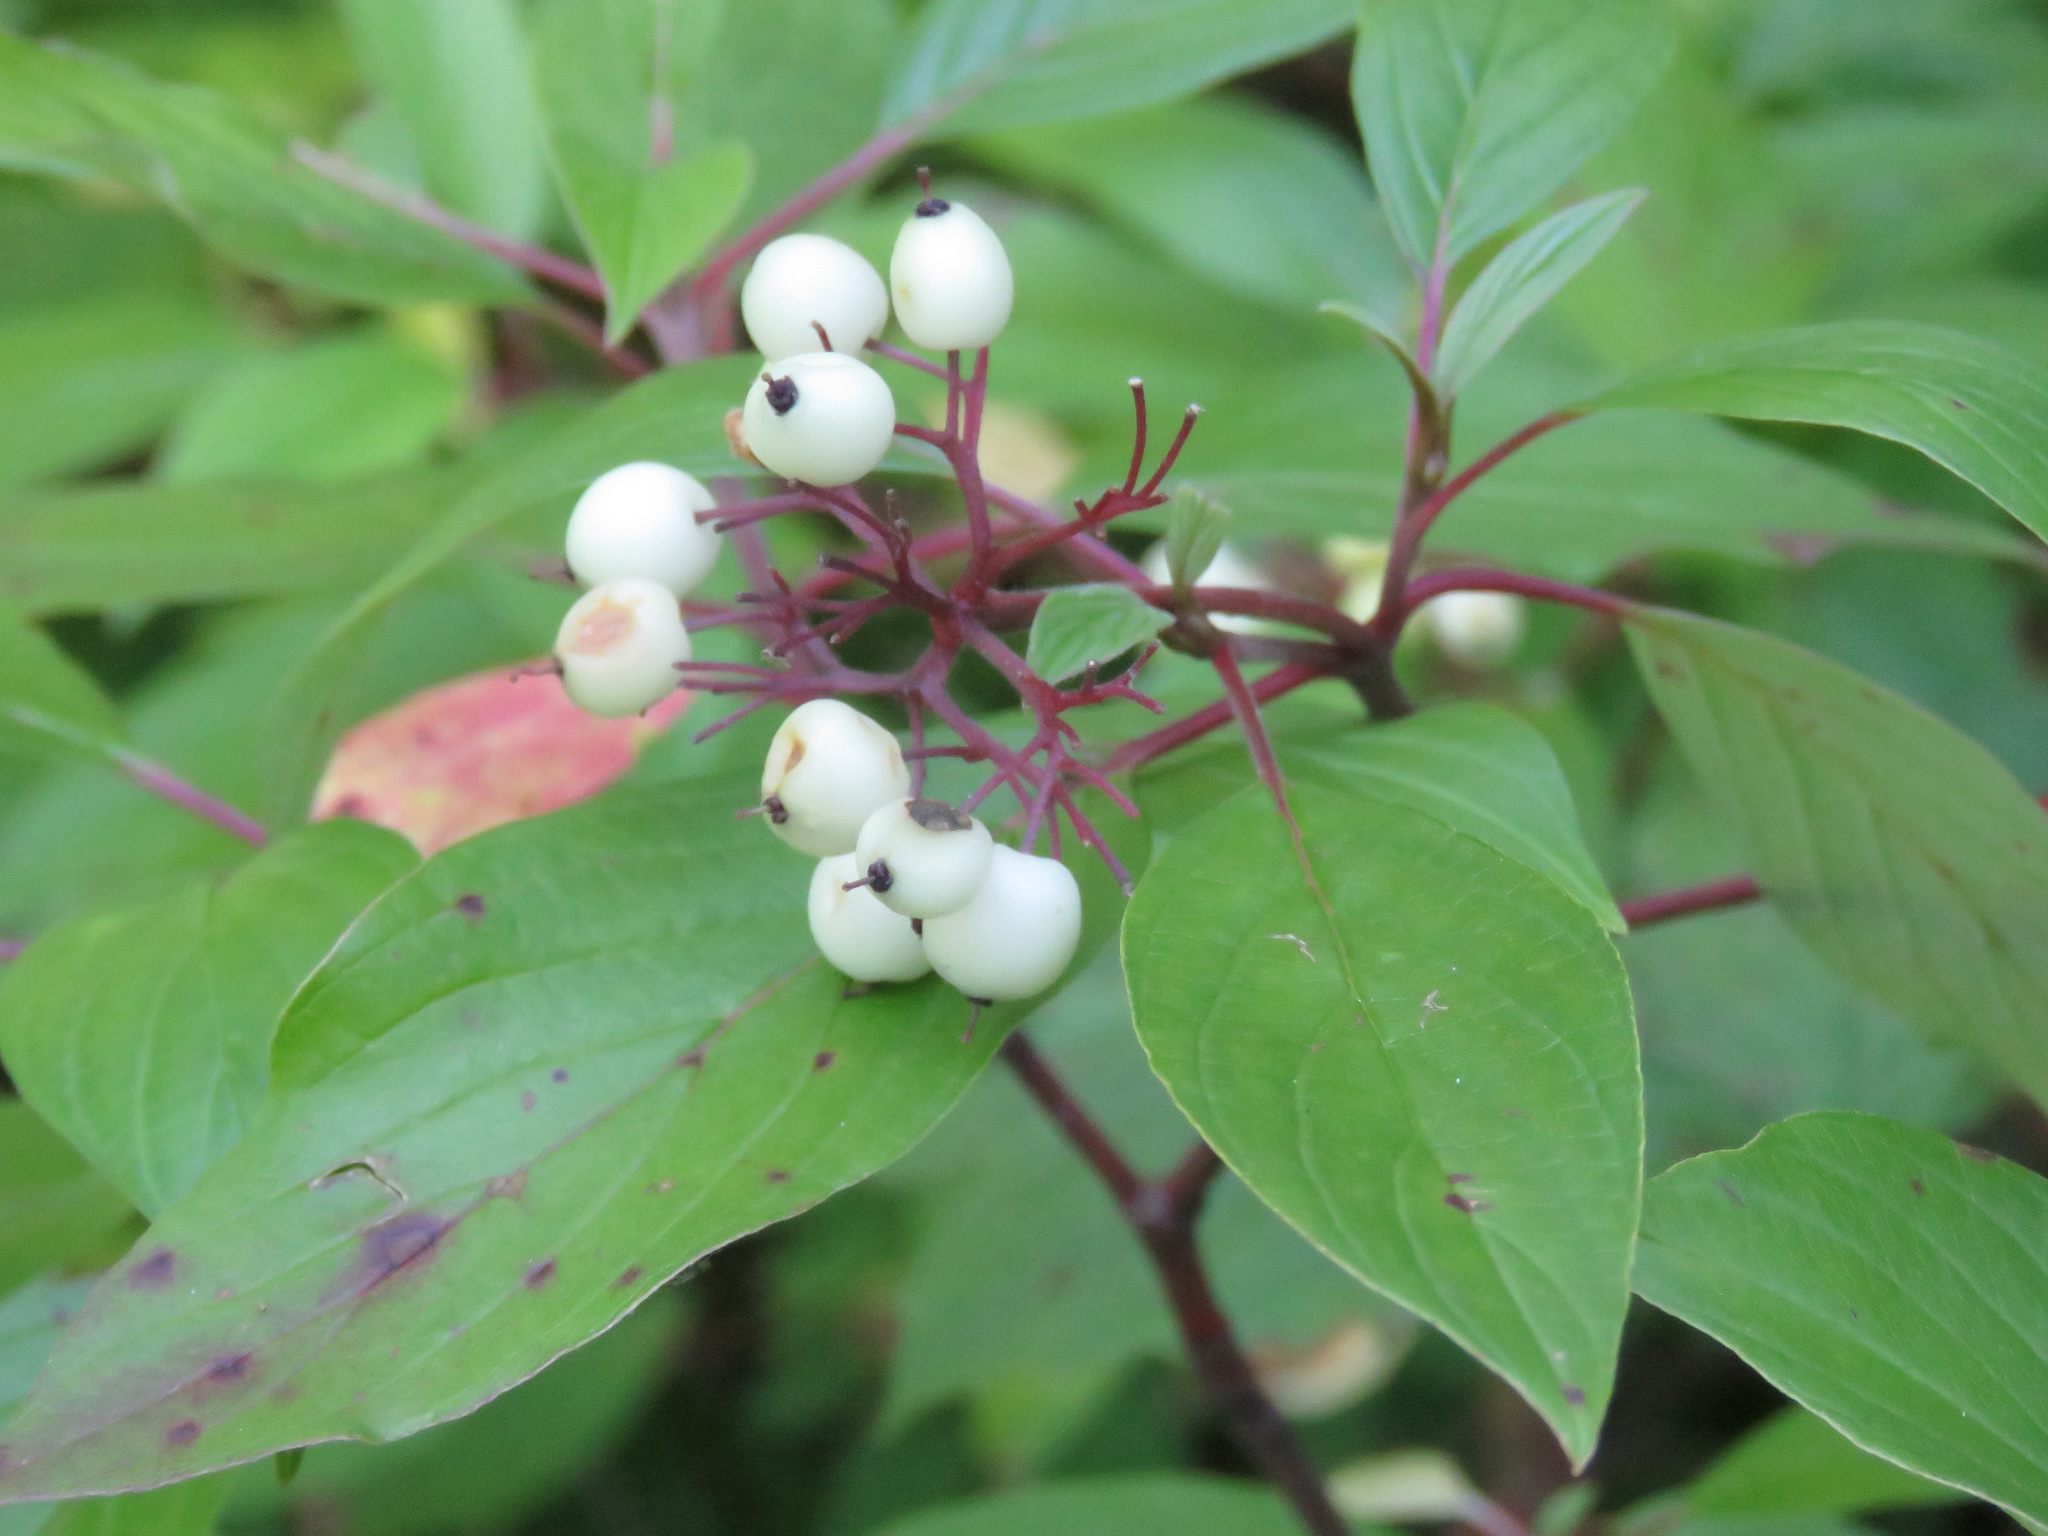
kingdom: Plantae
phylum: Tracheophyta
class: Magnoliopsida
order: Cornales
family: Cornaceae
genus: Cornus
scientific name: Cornus sericea
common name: Red-osier dogwood
